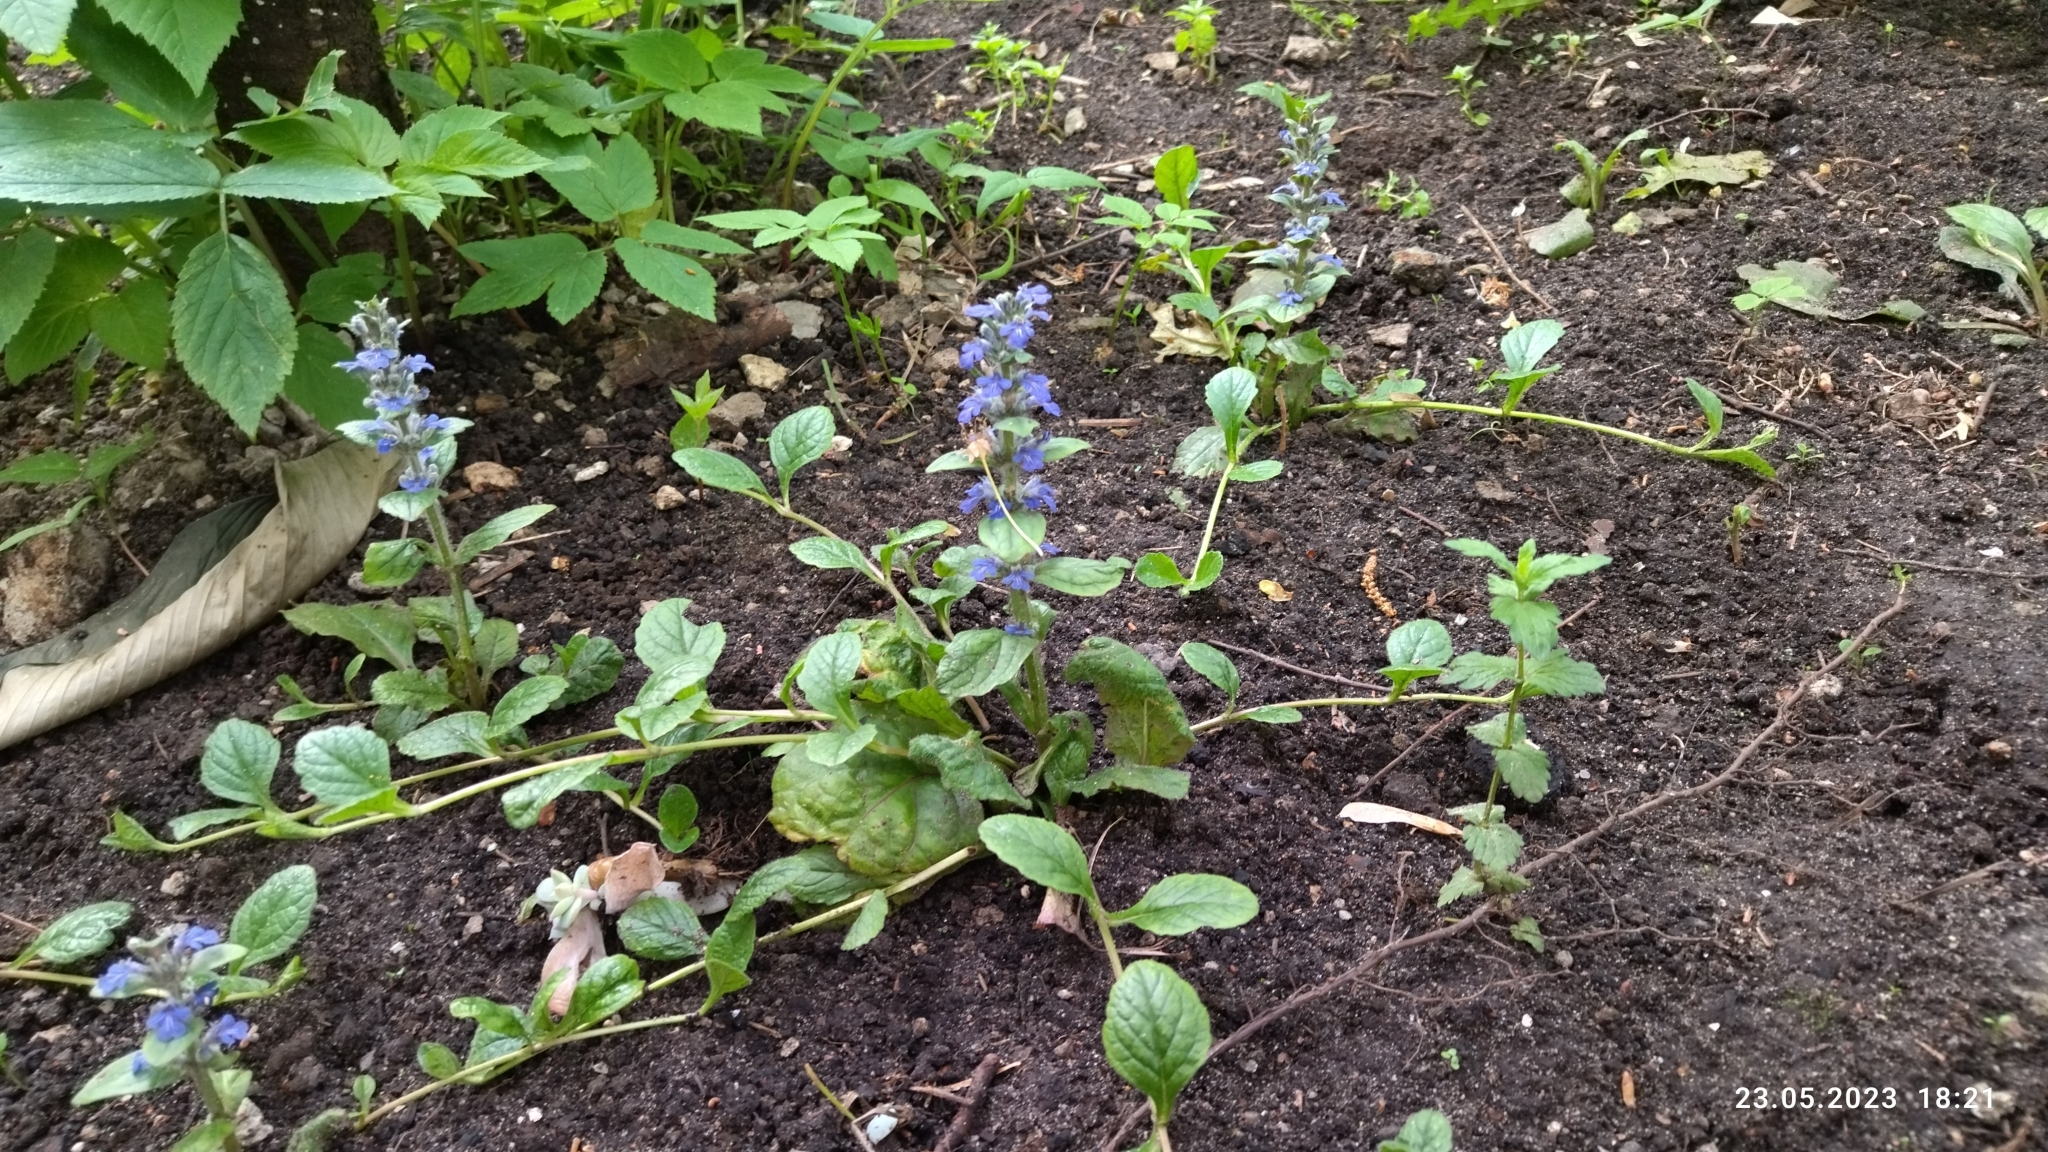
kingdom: Plantae
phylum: Tracheophyta
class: Magnoliopsida
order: Lamiales
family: Lamiaceae
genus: Ajuga
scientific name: Ajuga reptans
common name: Bugle
